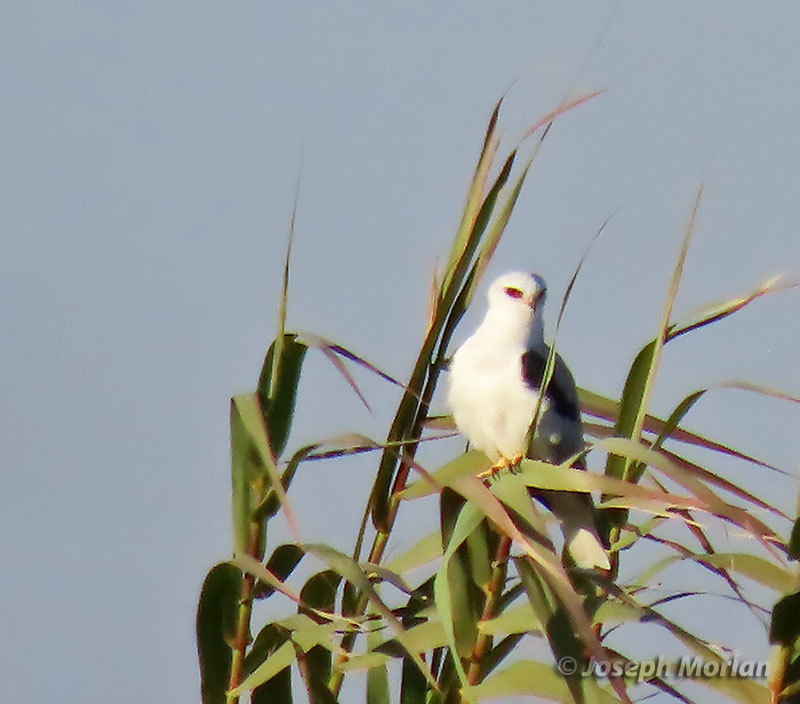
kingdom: Animalia
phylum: Chordata
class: Aves
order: Accipitriformes
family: Accipitridae
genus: Elanus
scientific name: Elanus leucurus
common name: White-tailed kite
